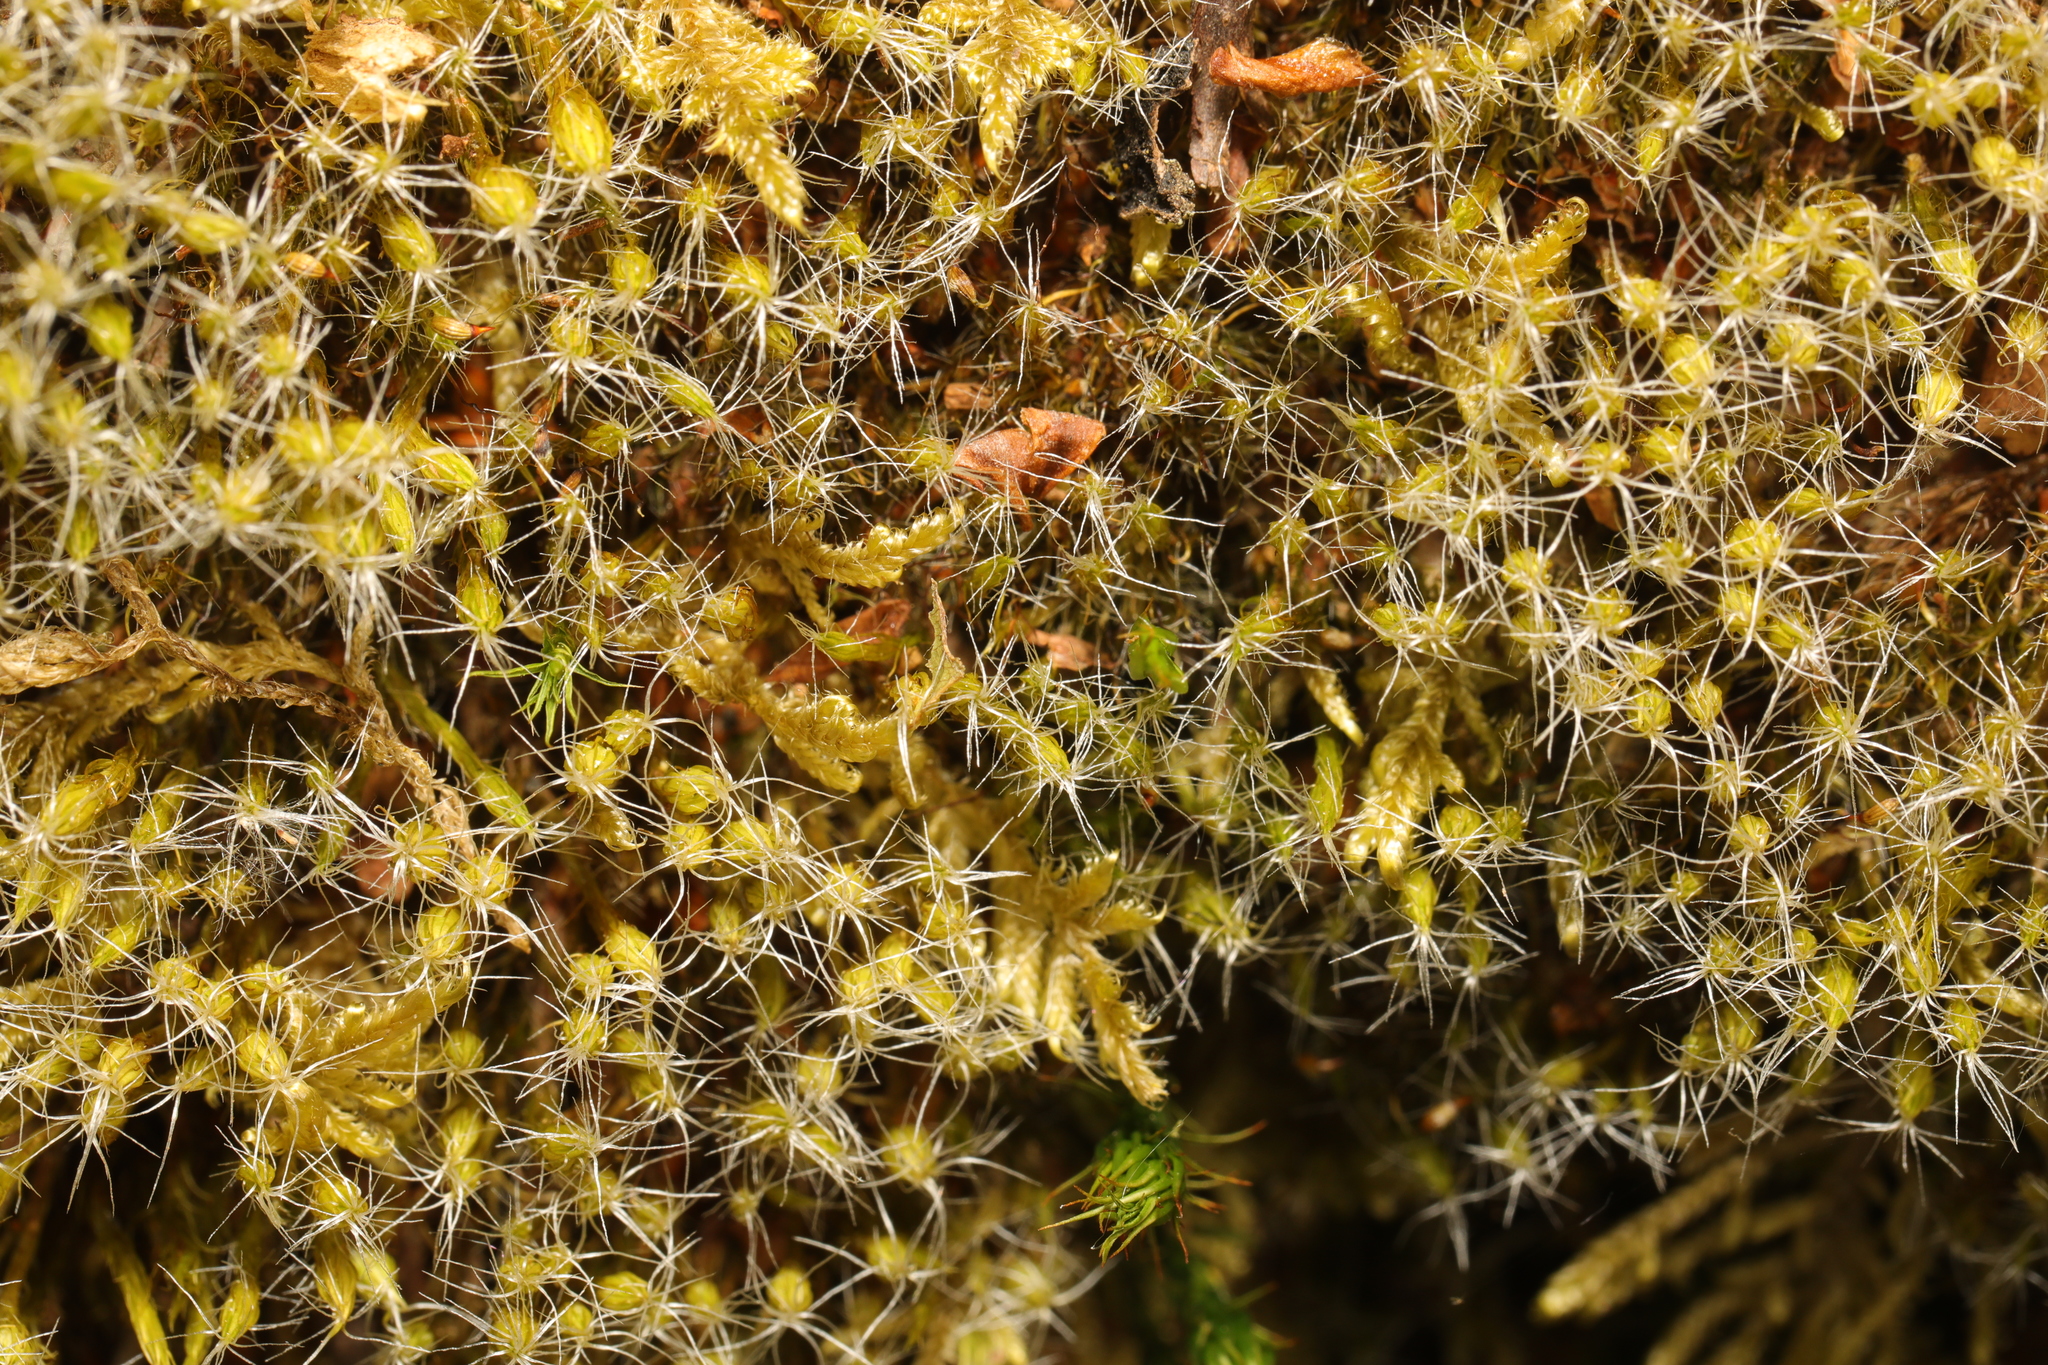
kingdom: Plantae
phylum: Bryophyta
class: Bryopsida
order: Dicranales
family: Leucobryaceae
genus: Campylopus
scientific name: Campylopus introflexus
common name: Heath star moss
